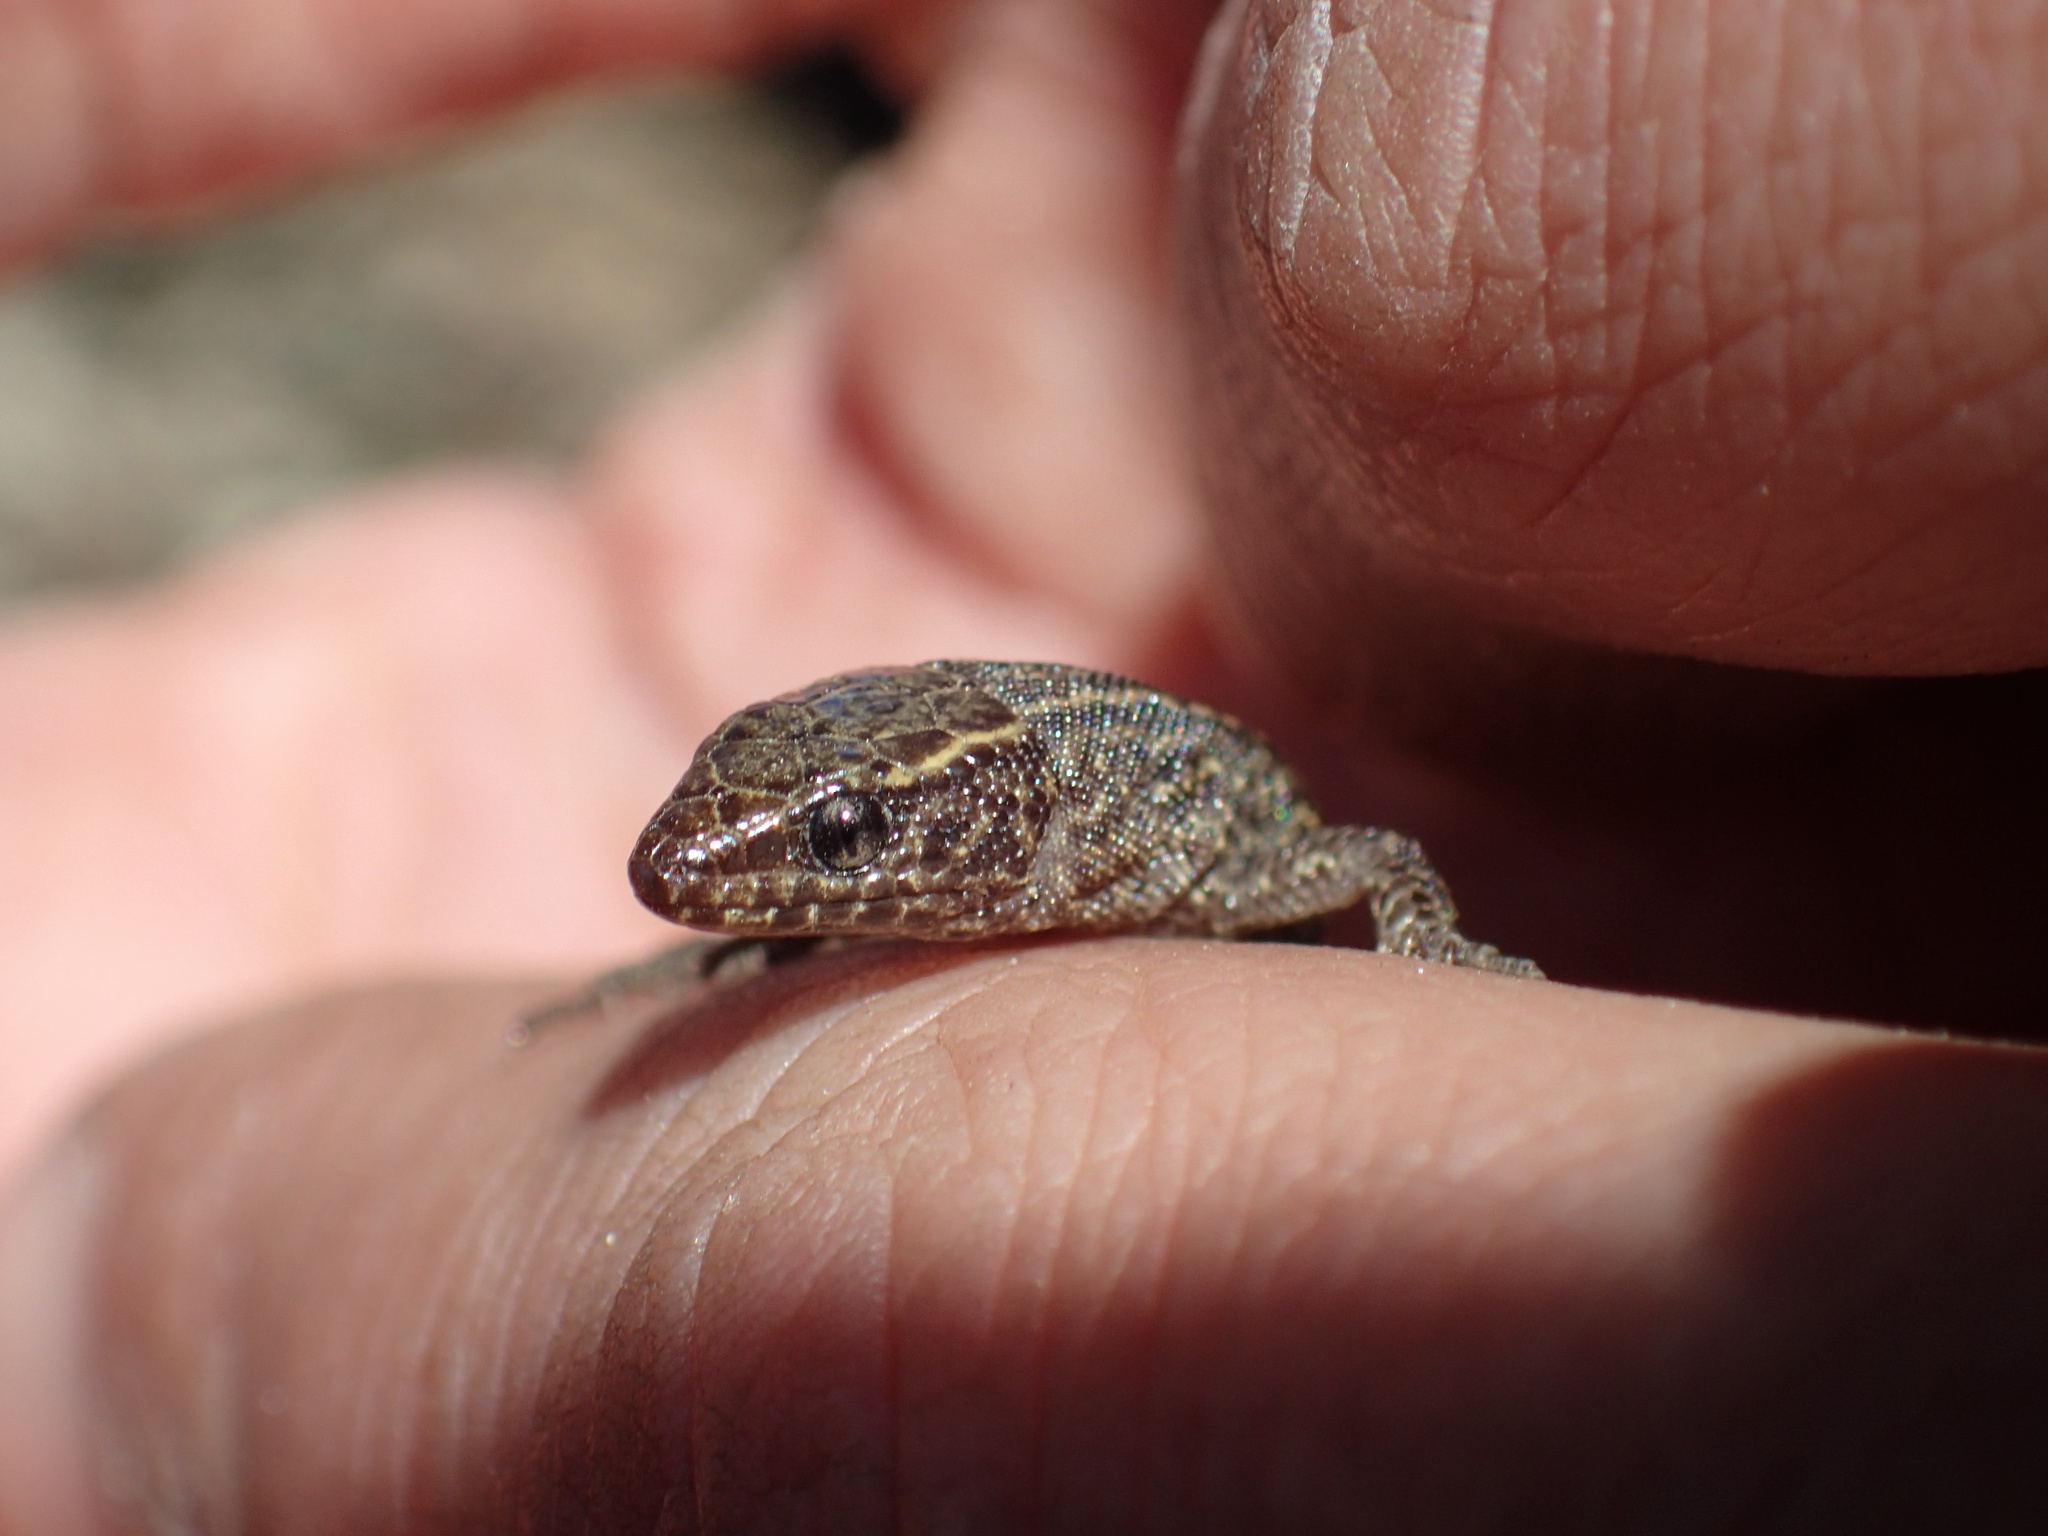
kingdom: Animalia
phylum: Chordata
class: Squamata
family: Xantusiidae
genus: Xantusia
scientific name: Xantusia vigilis
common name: Desert night lizard
